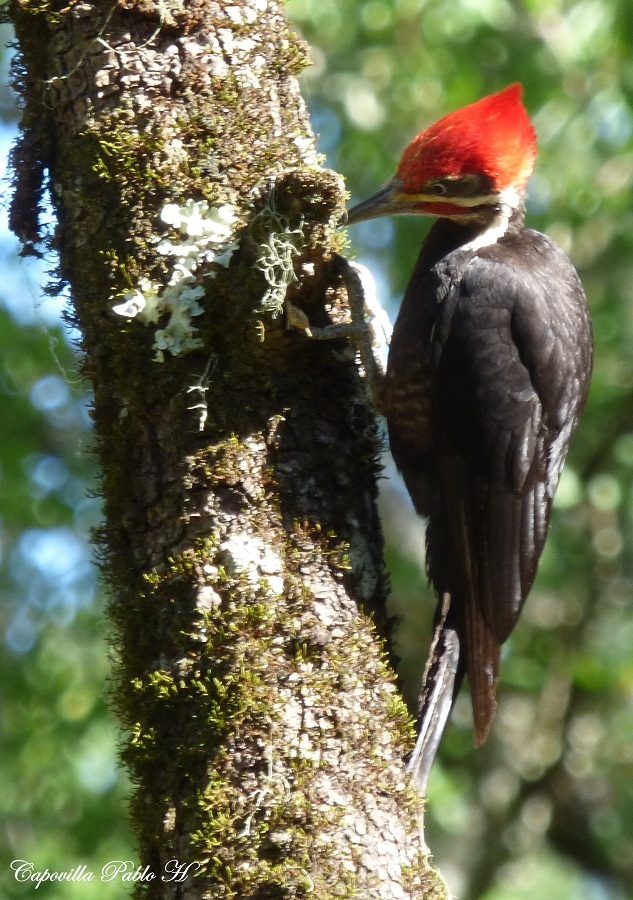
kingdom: Animalia
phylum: Chordata
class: Aves
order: Piciformes
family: Picidae
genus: Dryocopus
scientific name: Dryocopus
